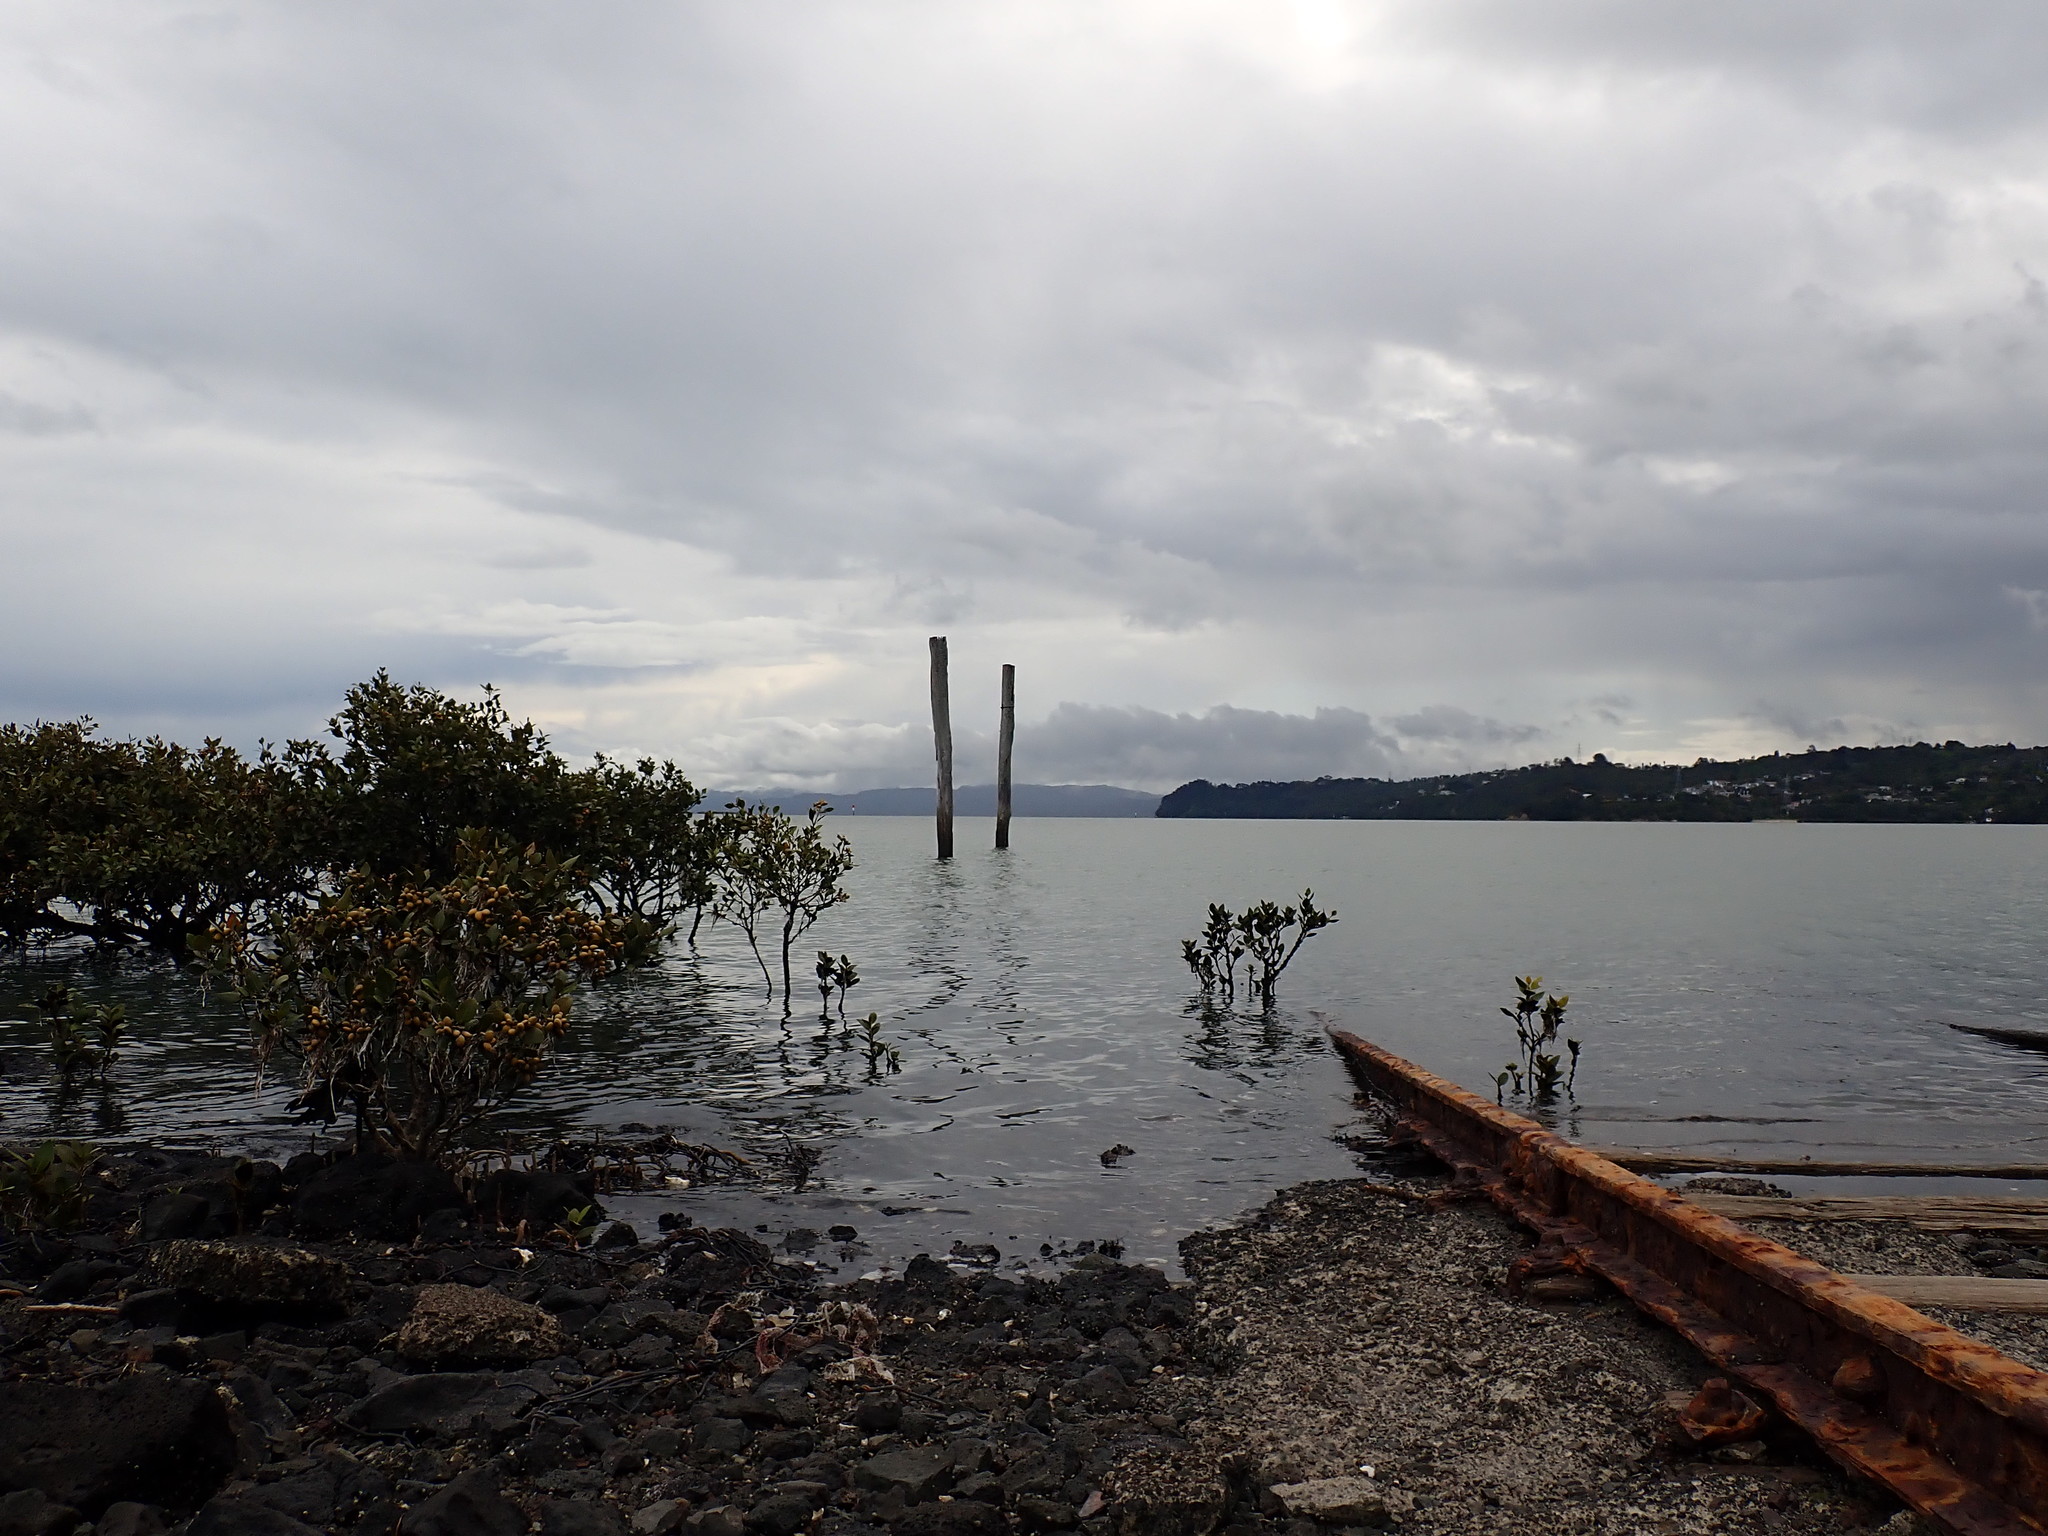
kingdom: Plantae
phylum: Tracheophyta
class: Magnoliopsida
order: Lamiales
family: Acanthaceae
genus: Avicennia
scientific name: Avicennia marina
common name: Gray mangrove
